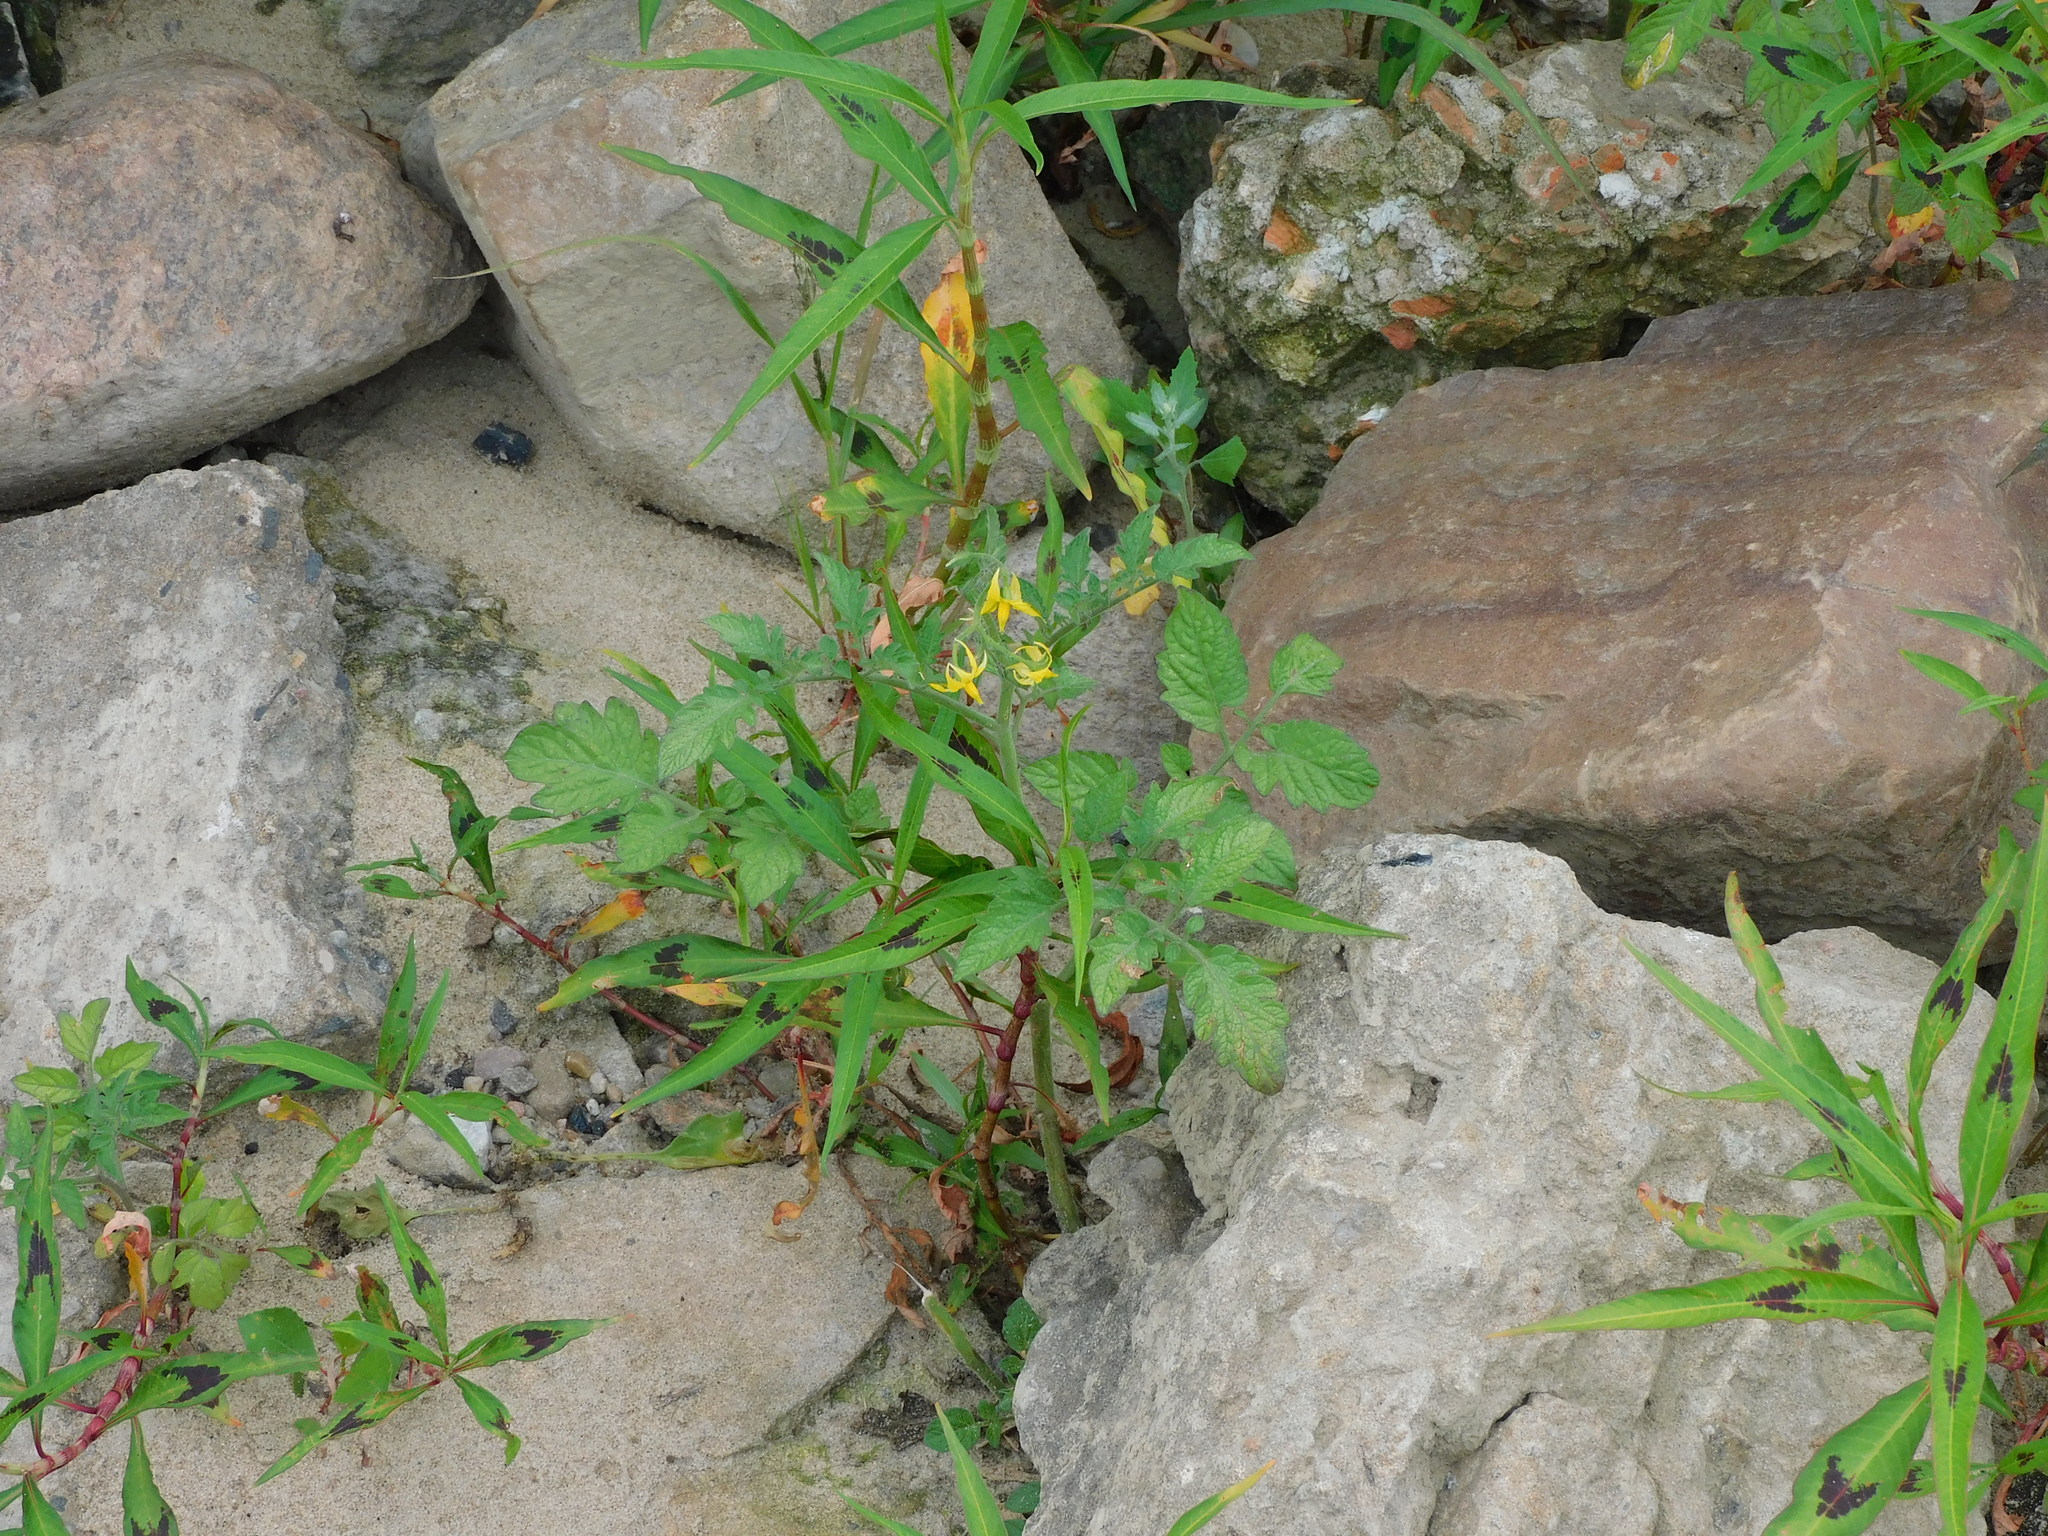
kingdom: Plantae
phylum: Tracheophyta
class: Magnoliopsida
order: Solanales
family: Solanaceae
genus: Solanum
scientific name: Solanum lycopersicum
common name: Garden tomato
